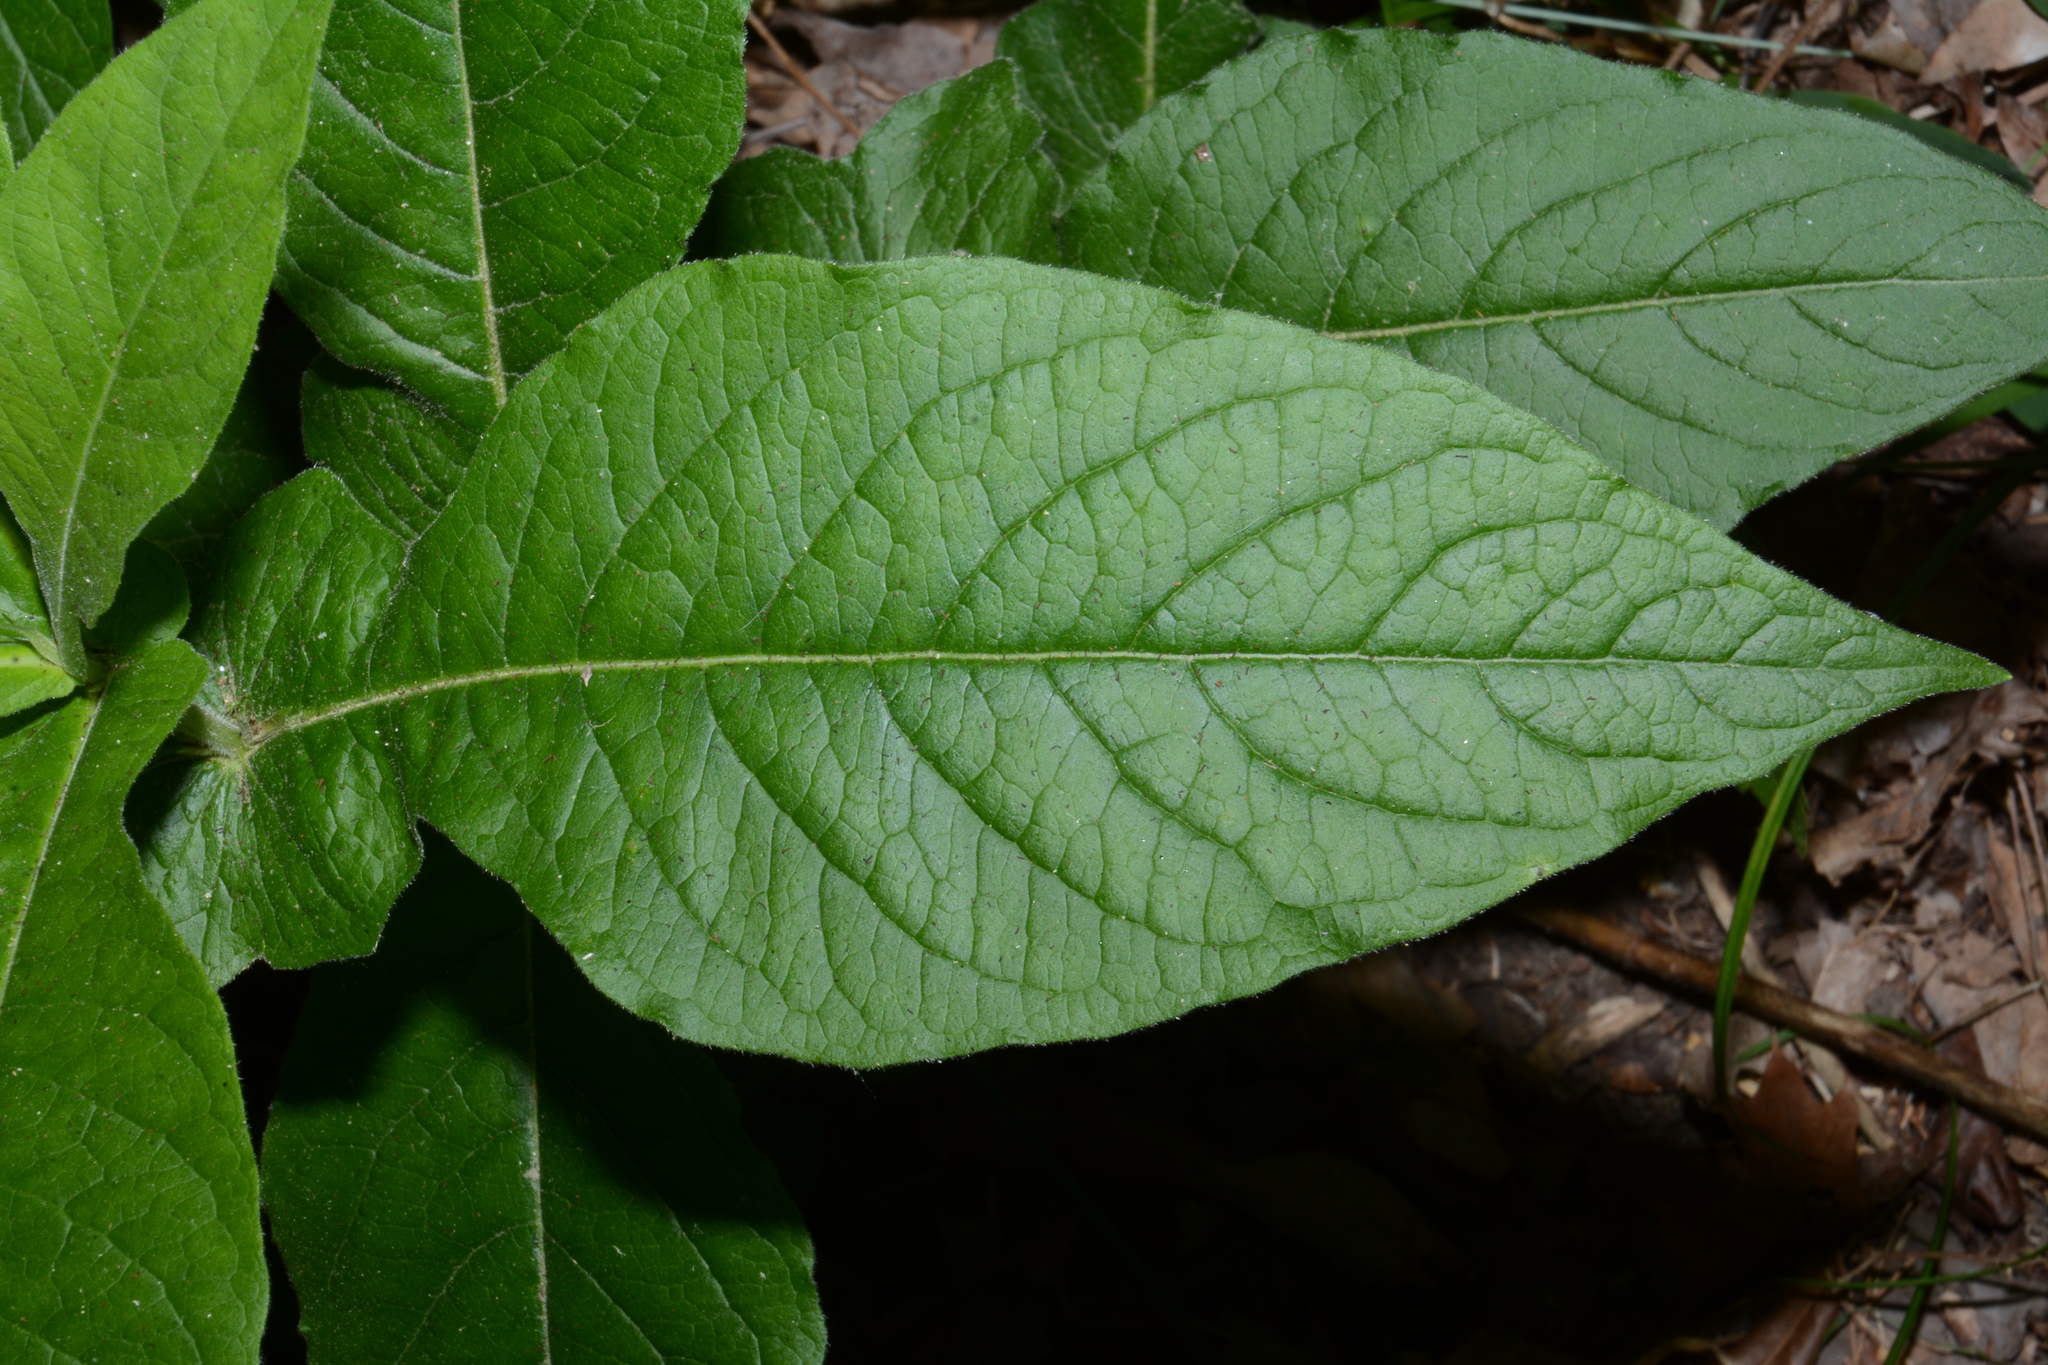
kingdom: Plantae
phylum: Tracheophyta
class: Magnoliopsida
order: Dipsacales
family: Caprifoliaceae
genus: Triosteum
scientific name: Triosteum perfoliatum
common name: Common horse-gentian
